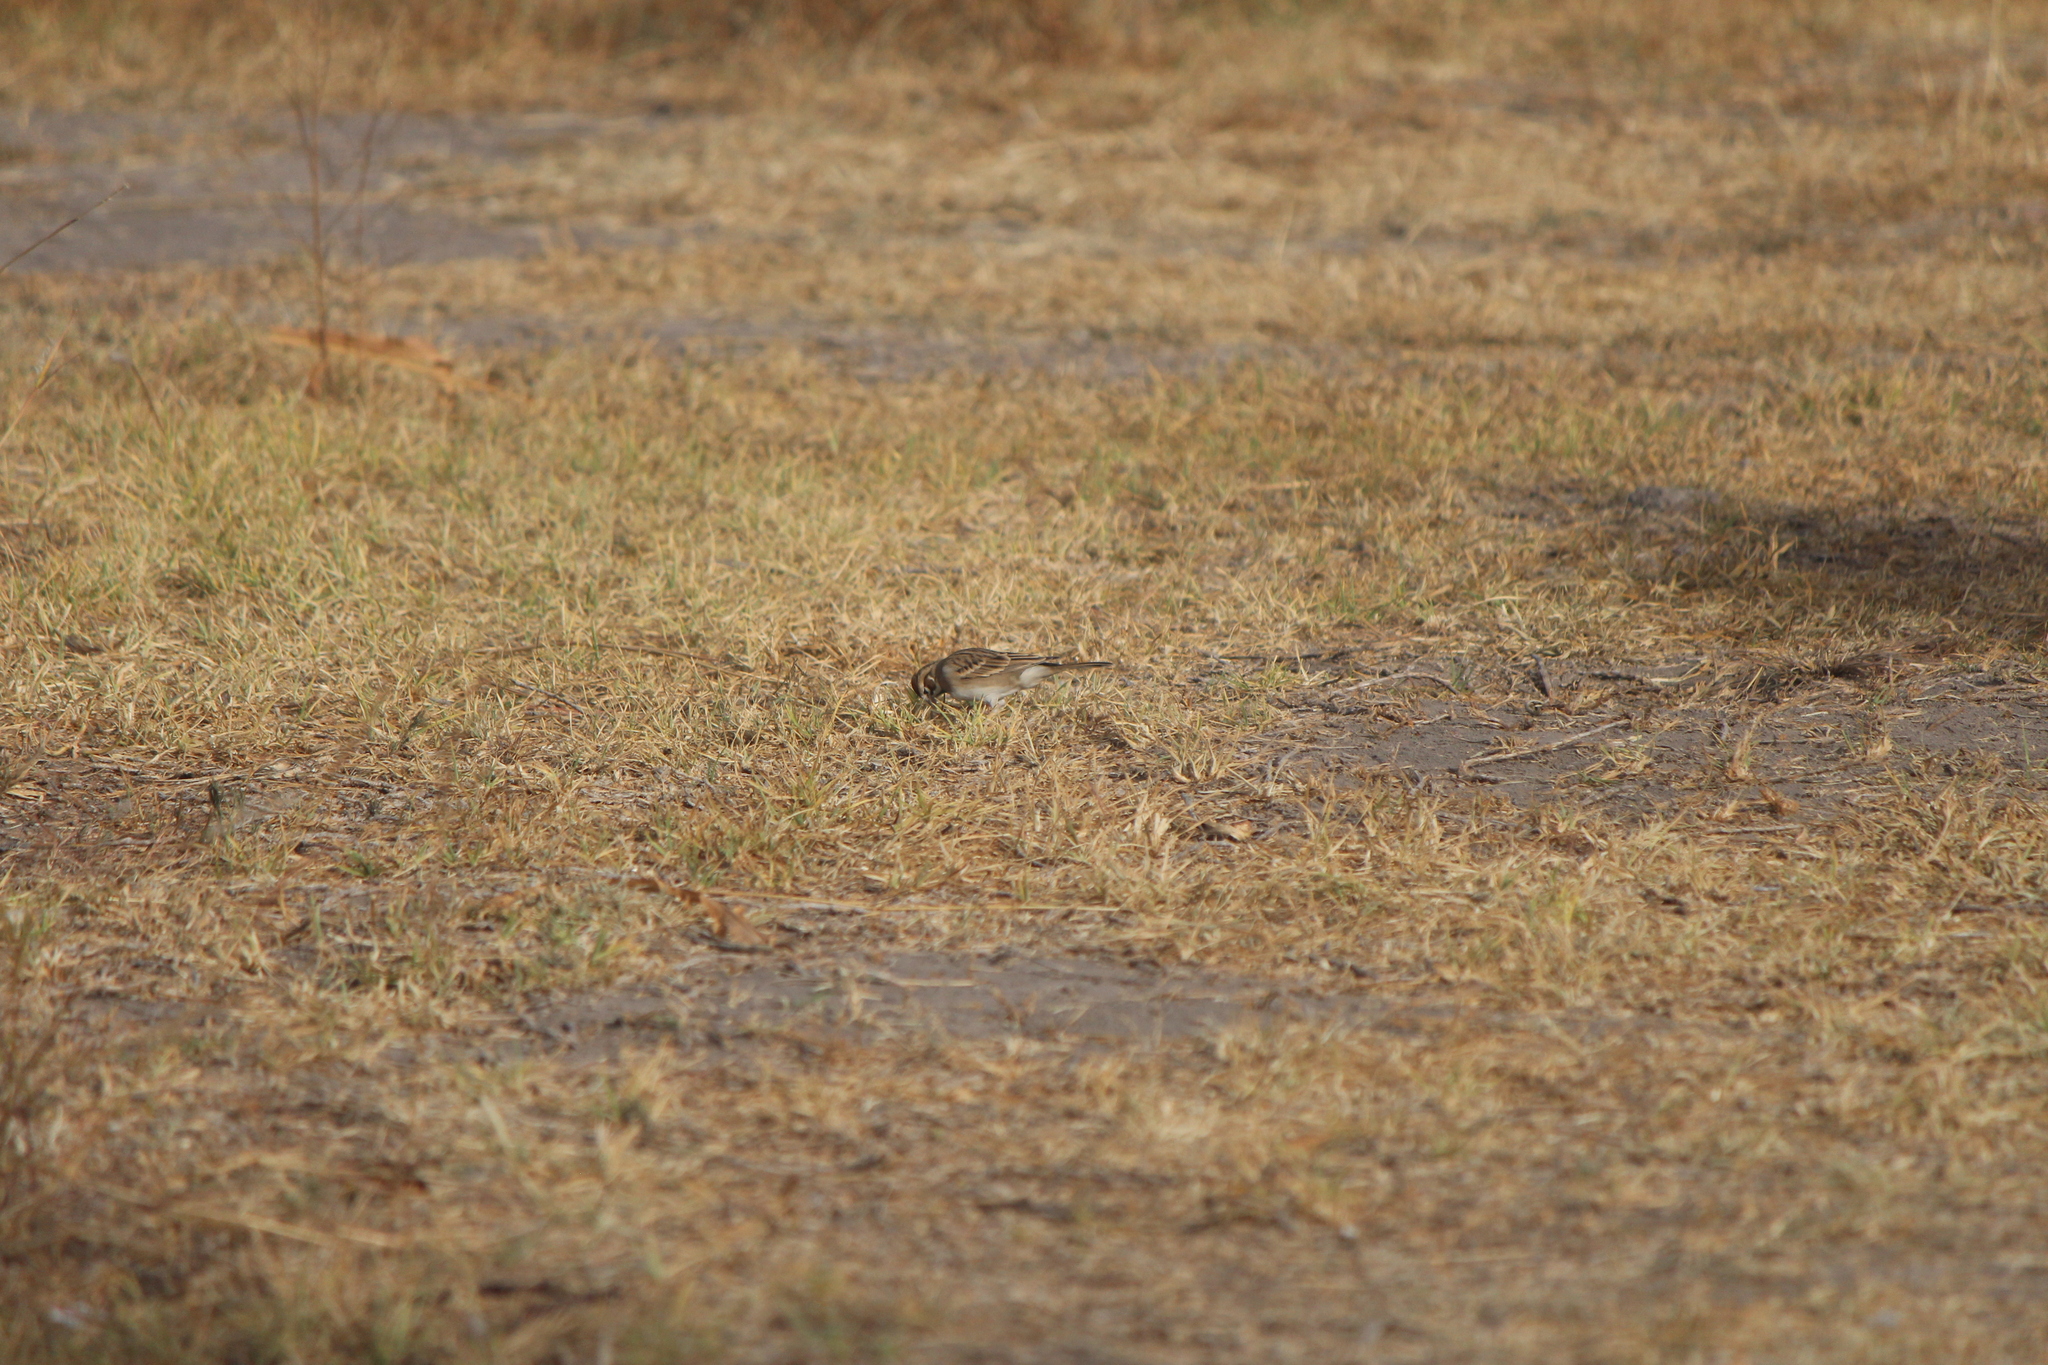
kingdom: Animalia
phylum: Chordata
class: Aves
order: Passeriformes
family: Passerellidae
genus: Chondestes
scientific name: Chondestes grammacus
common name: Lark sparrow
